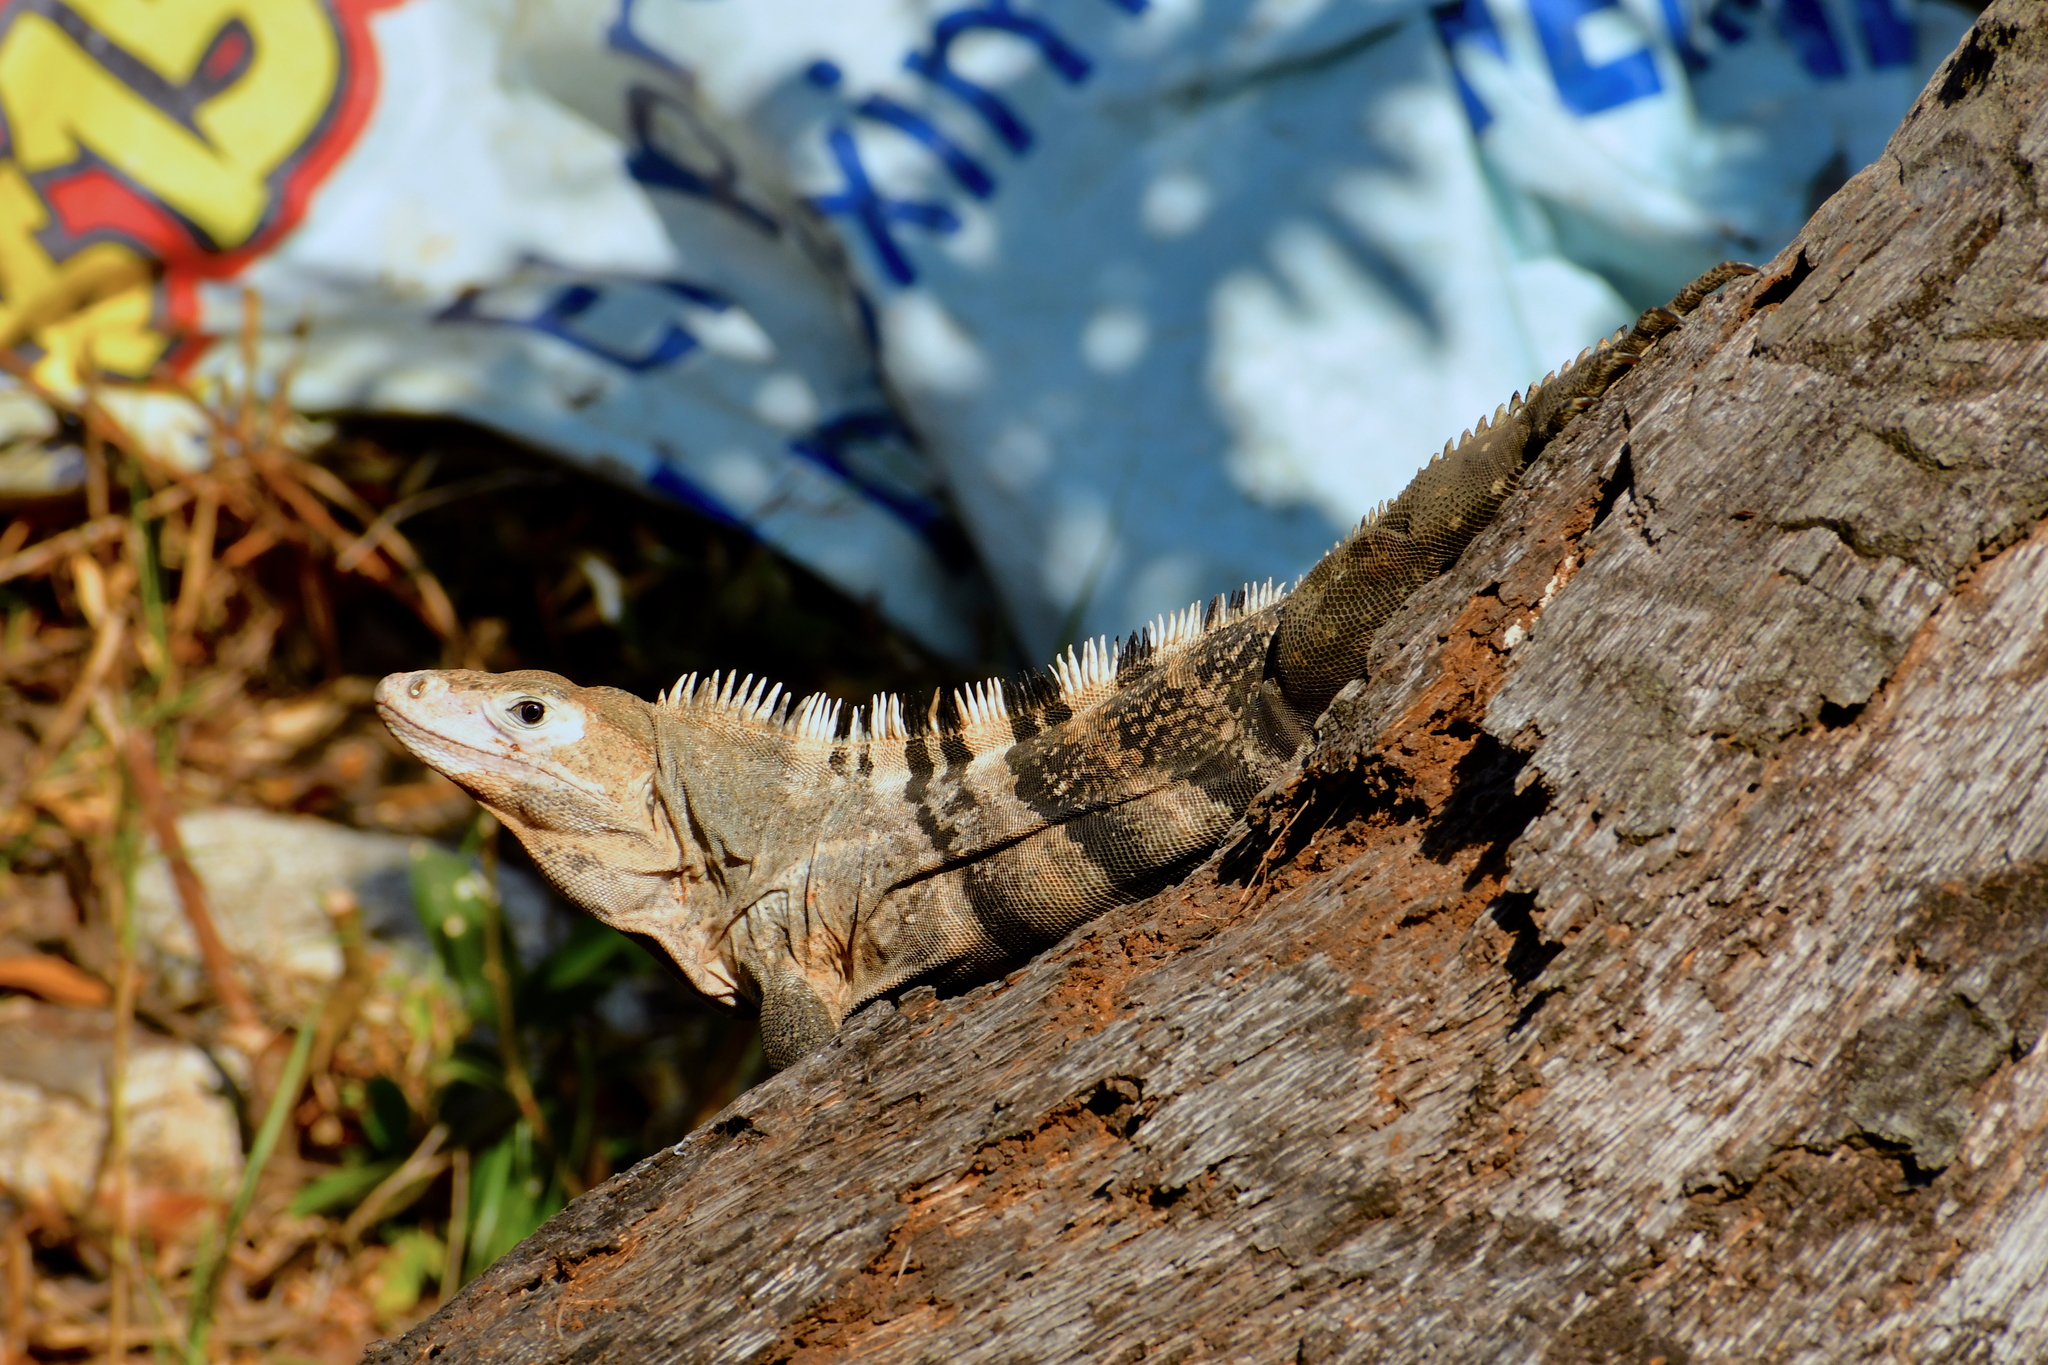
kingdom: Animalia
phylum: Chordata
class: Squamata
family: Iguanidae
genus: Ctenosaura
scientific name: Ctenosaura similis
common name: Black spiny-tailed iguana
